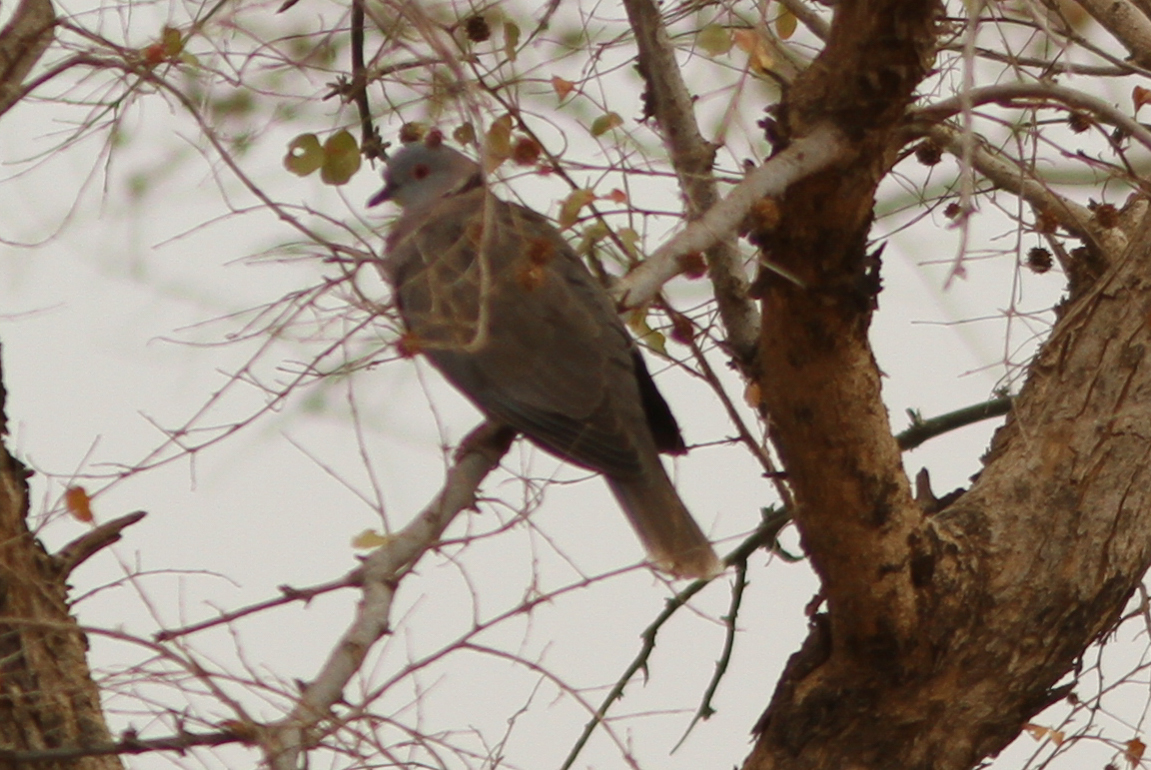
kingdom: Animalia
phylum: Chordata
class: Aves
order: Columbiformes
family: Columbidae
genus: Streptopelia
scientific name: Streptopelia decipiens
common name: Mourning collared dove
